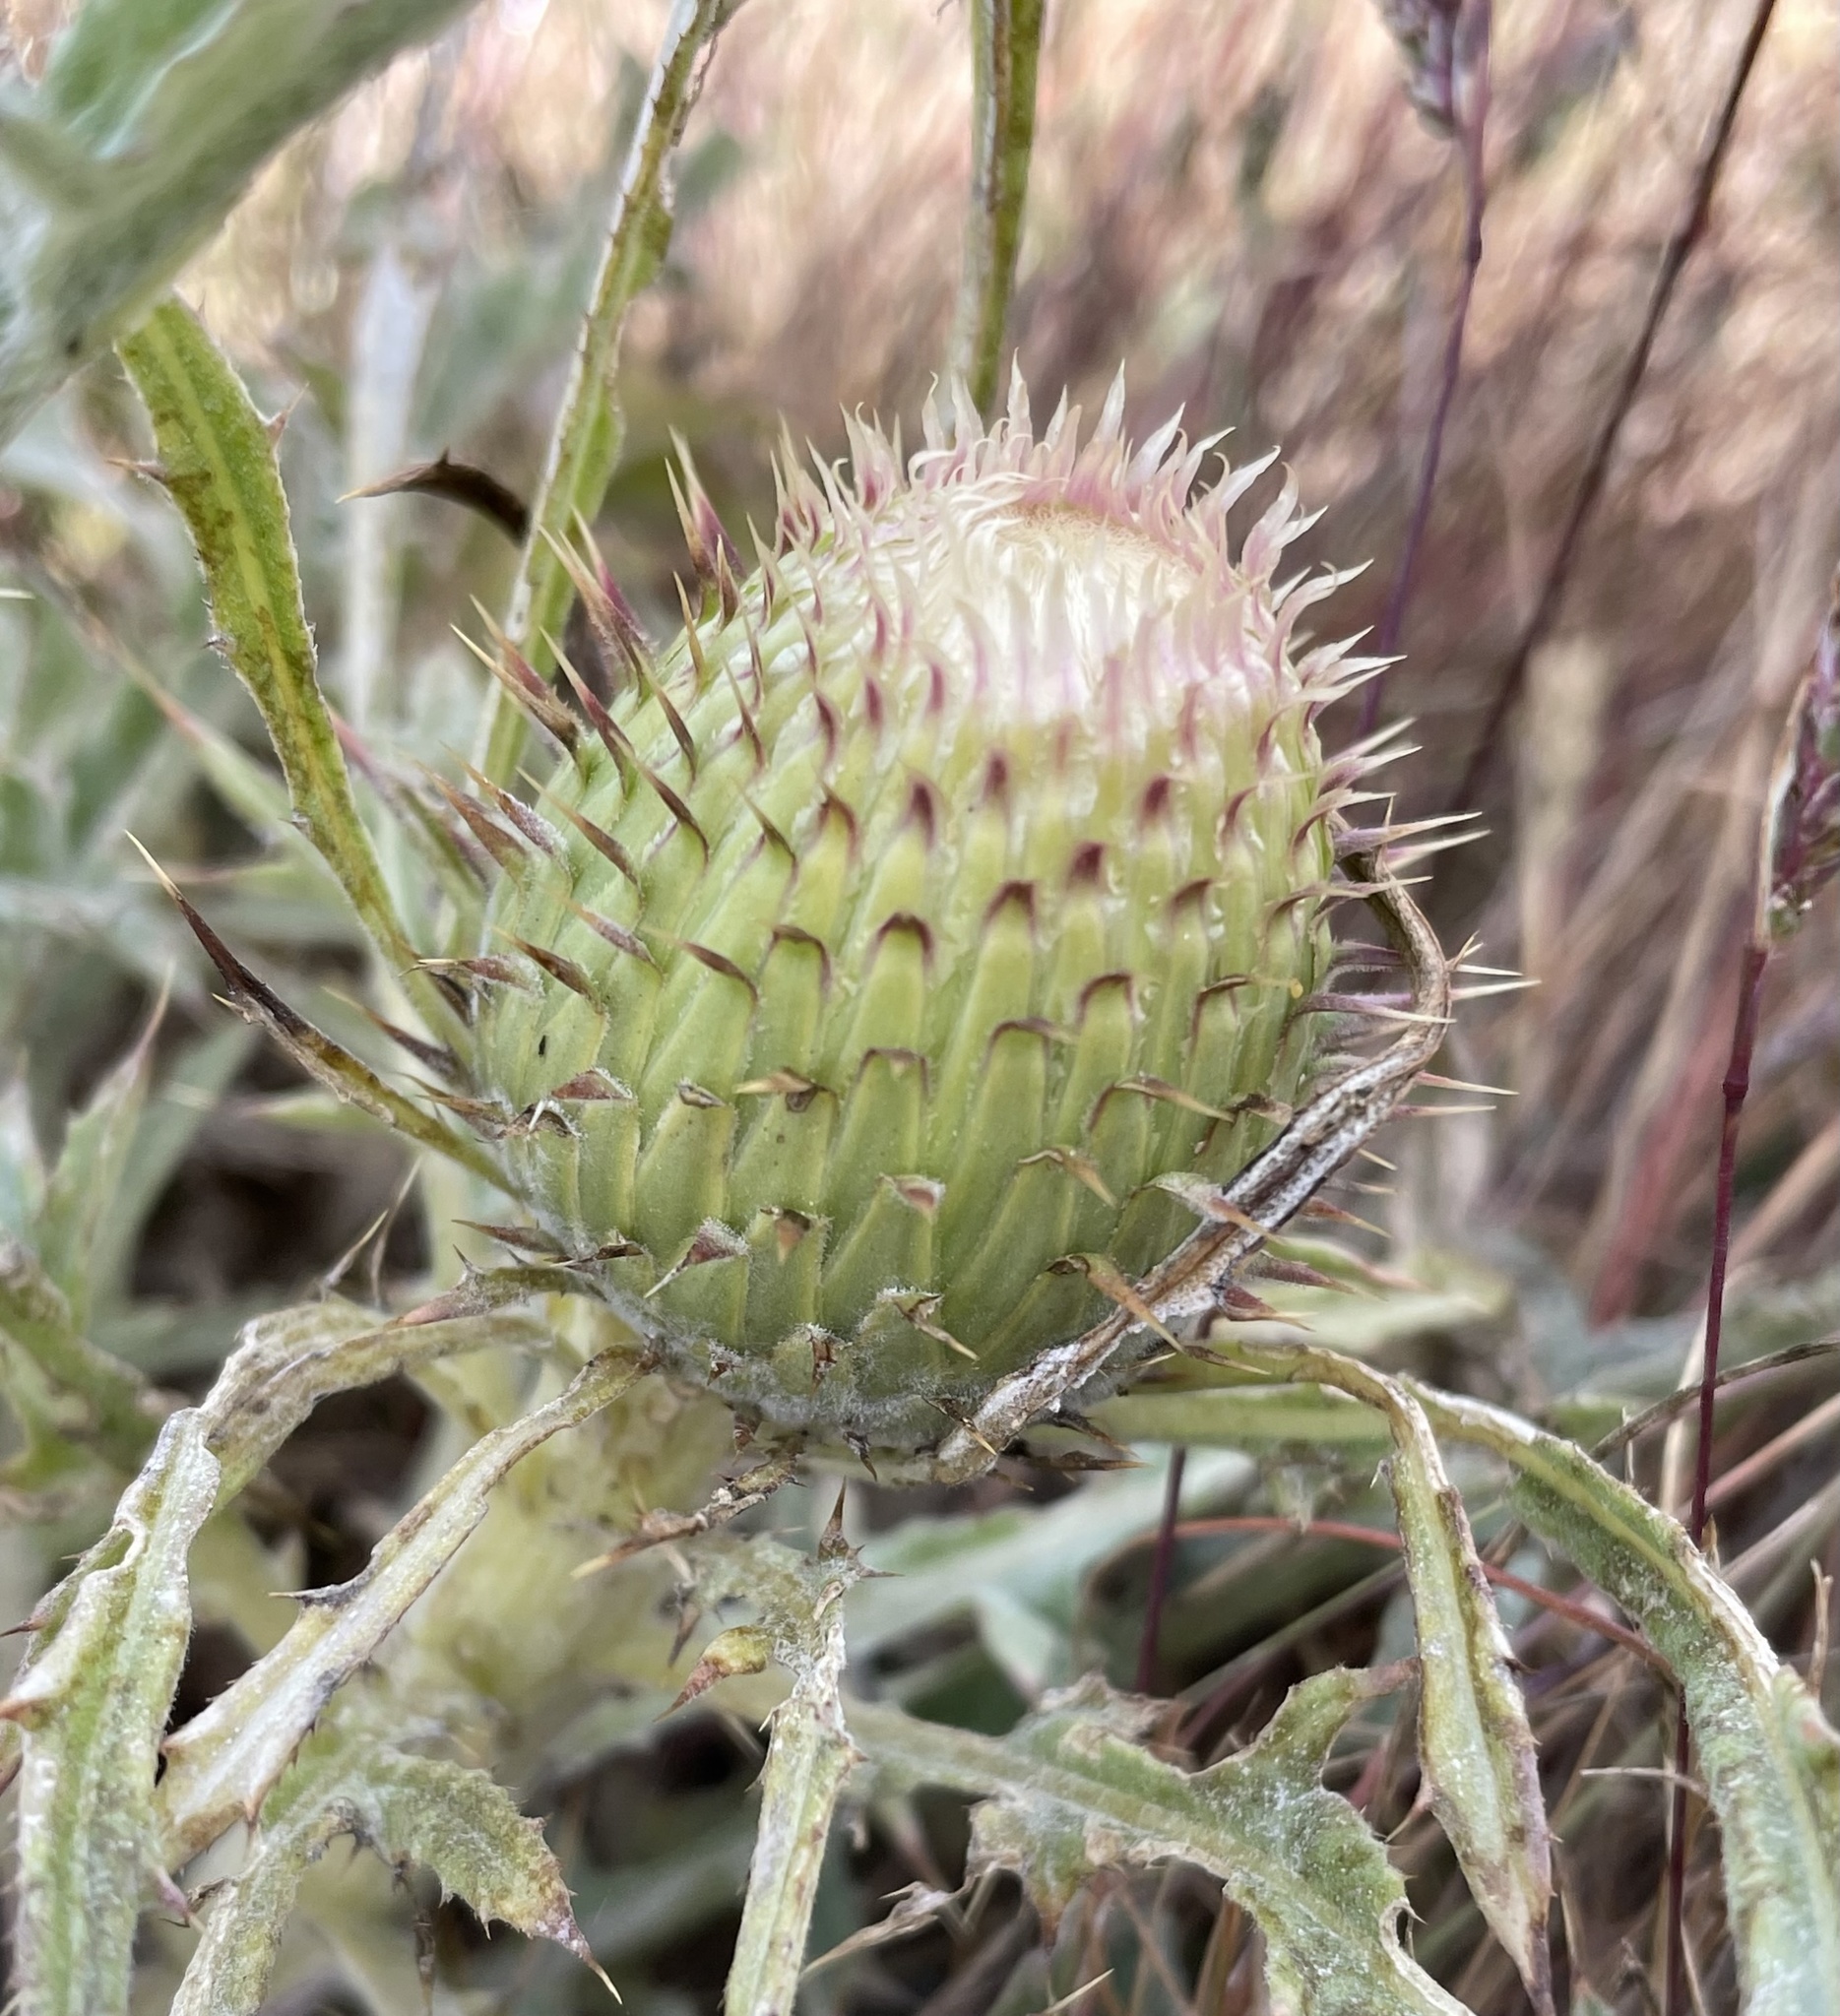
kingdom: Plantae
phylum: Tracheophyta
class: Magnoliopsida
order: Asterales
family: Asteraceae
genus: Cirsium
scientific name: Cirsium quercetorum
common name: Alameda county thistle
